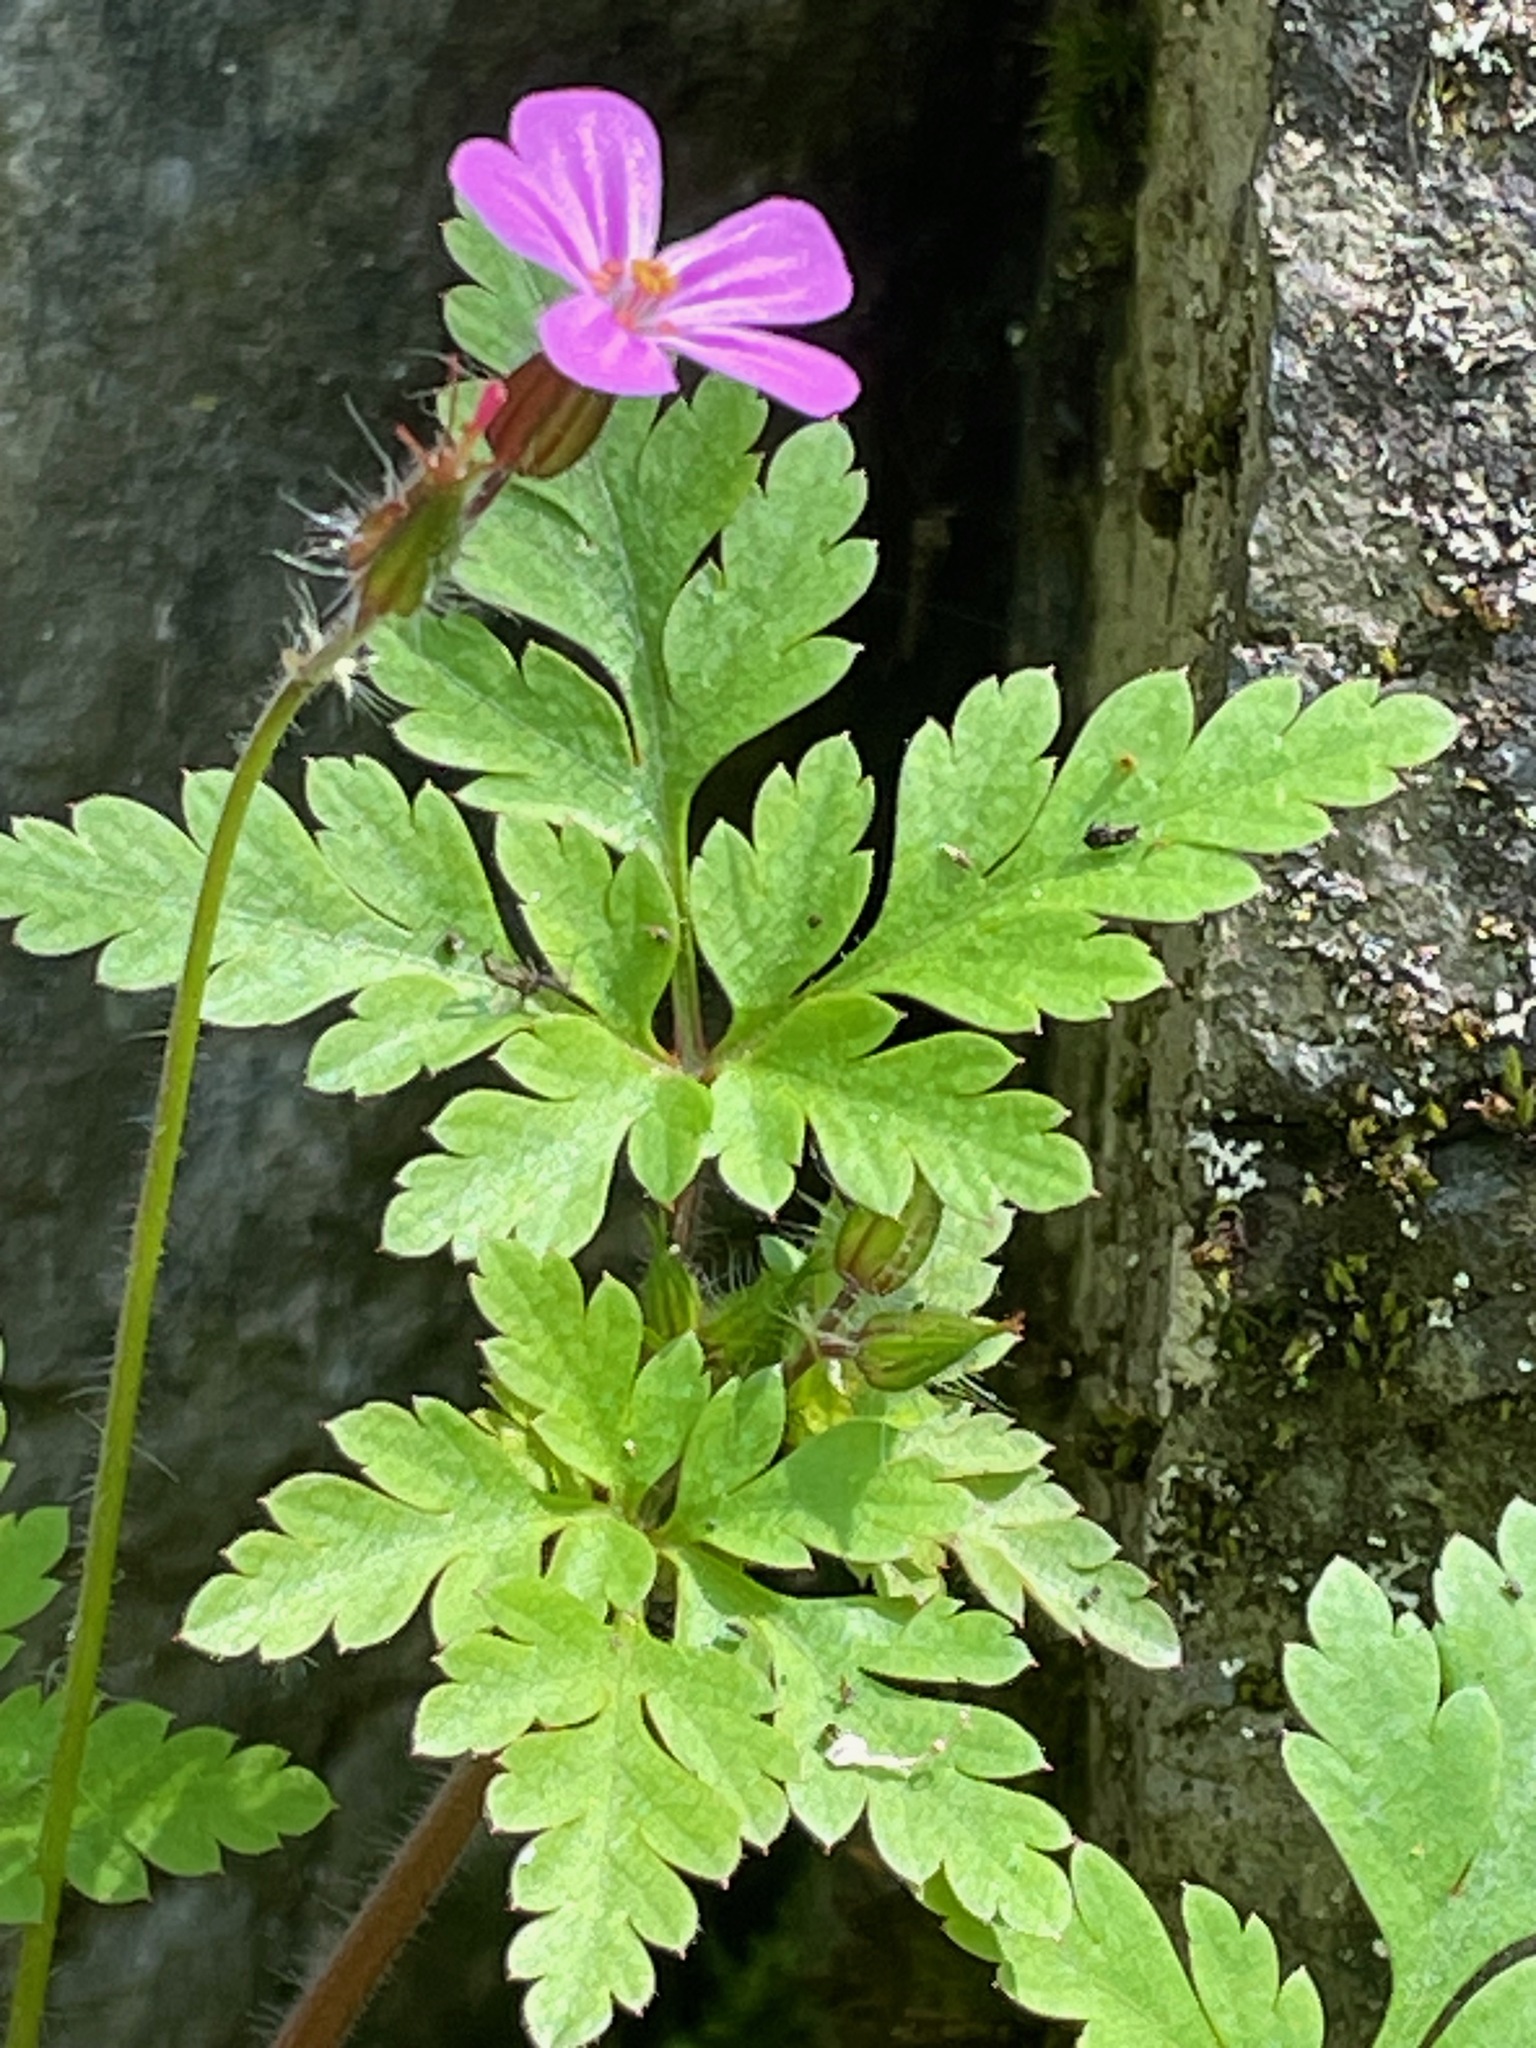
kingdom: Plantae
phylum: Tracheophyta
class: Magnoliopsida
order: Geraniales
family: Geraniaceae
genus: Geranium
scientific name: Geranium robertianum
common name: Herb-robert
